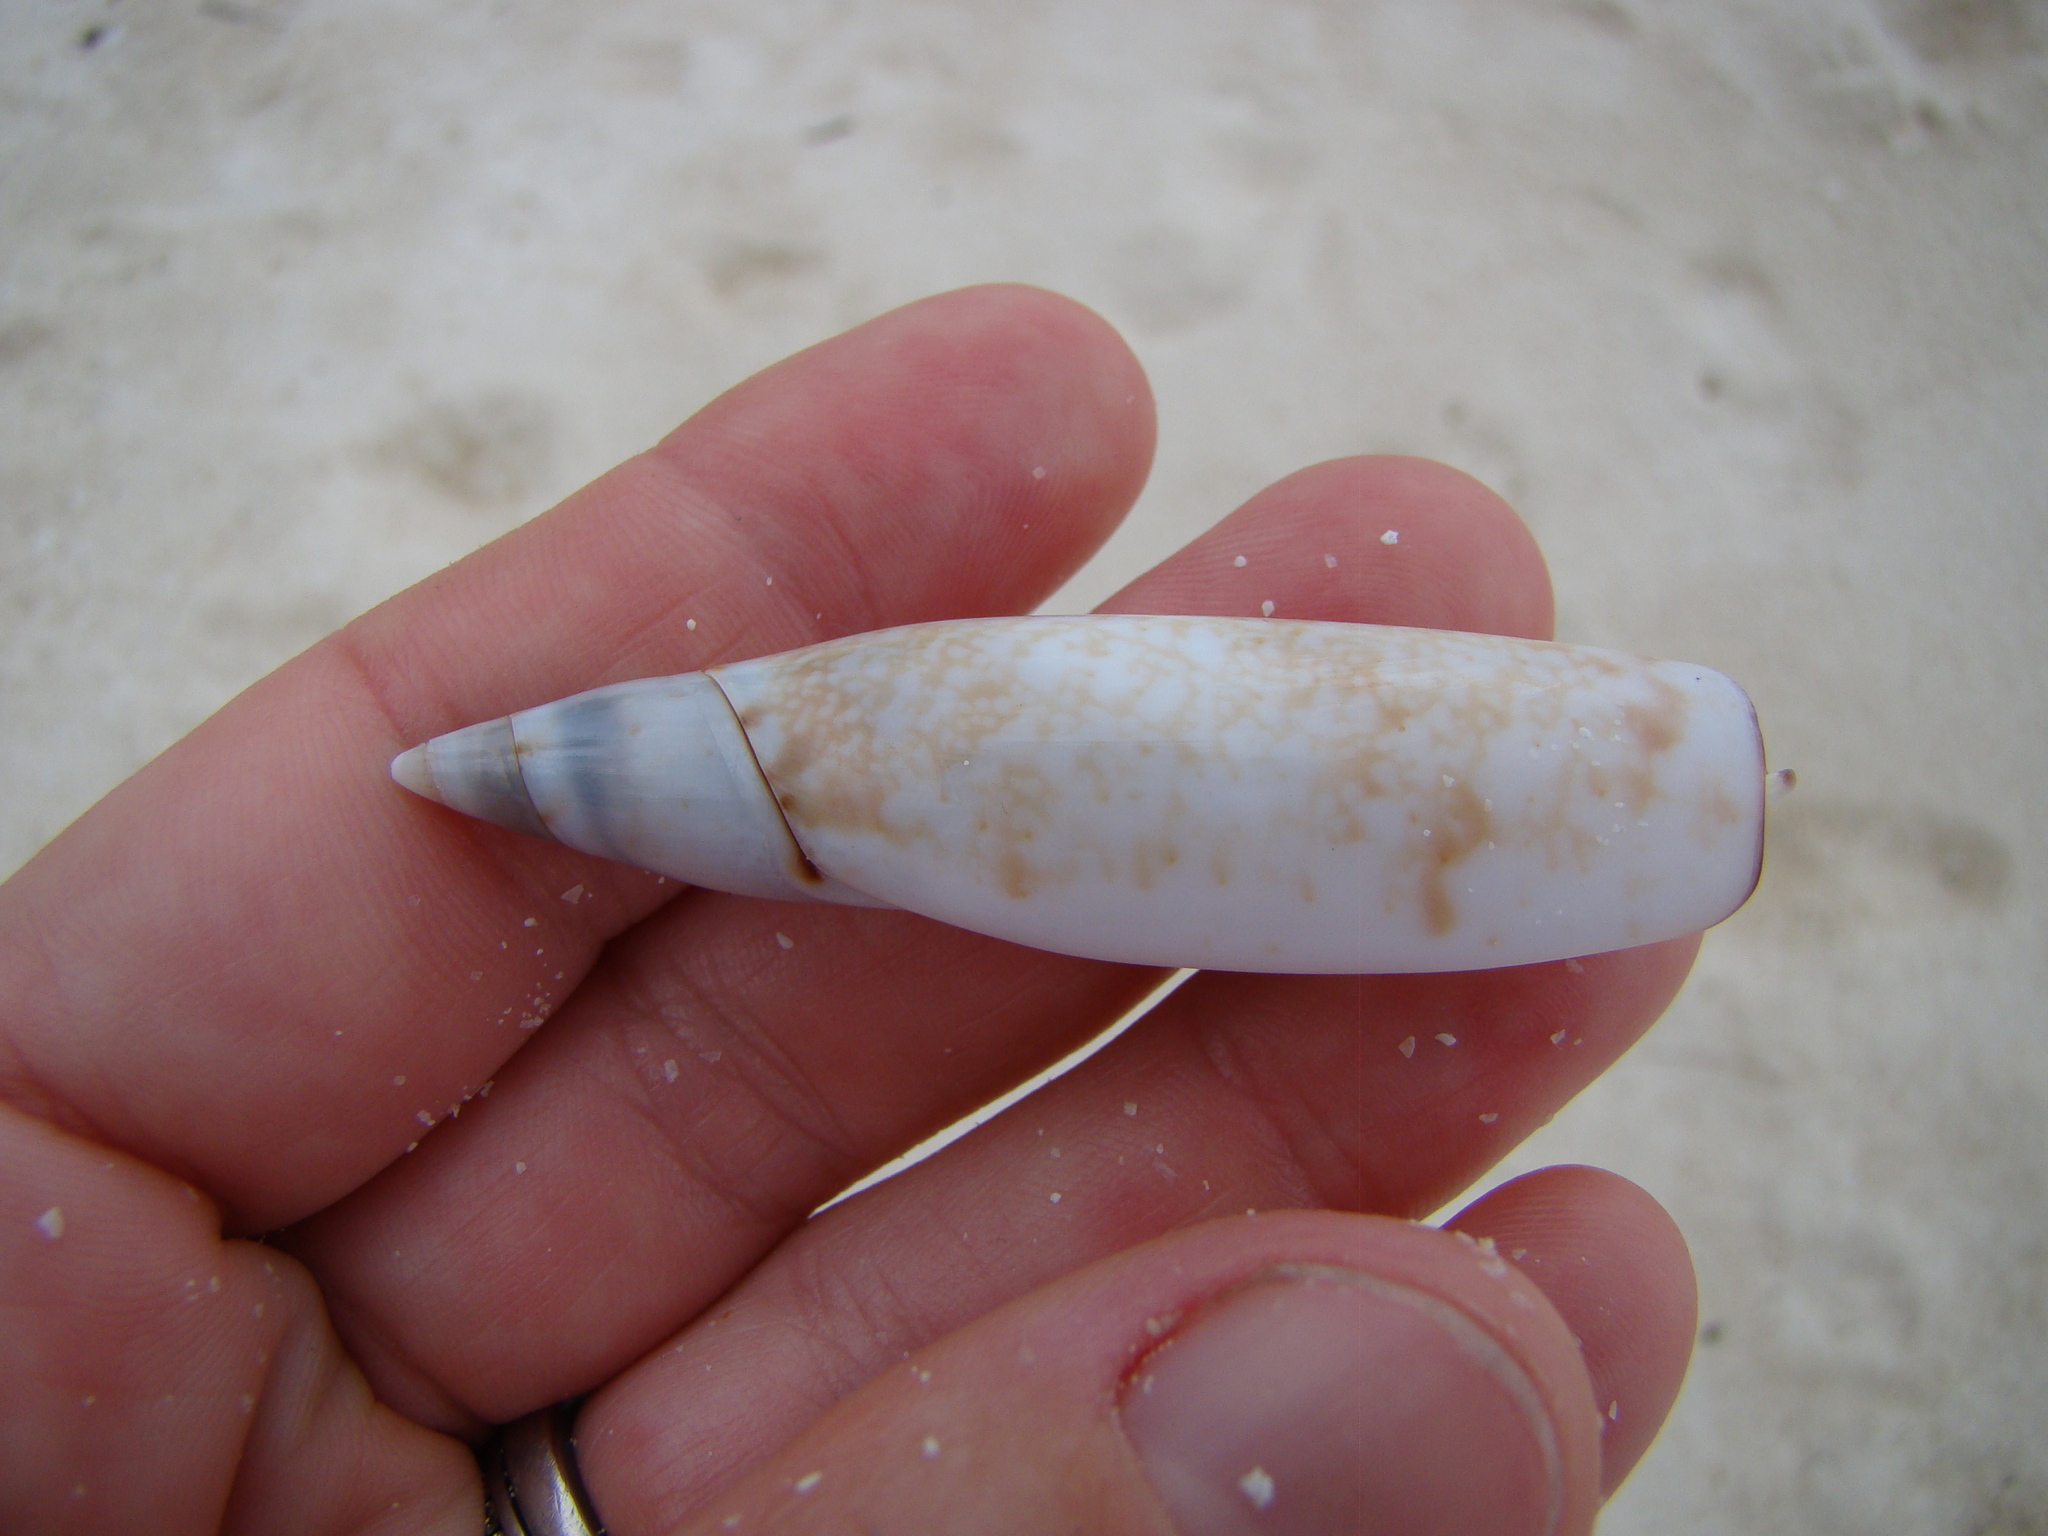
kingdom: Animalia
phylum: Mollusca
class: Gastropoda
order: Littorinimorpha
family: Seraphsidae
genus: Terebellum
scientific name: Terebellum terebellum
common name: Little auger
